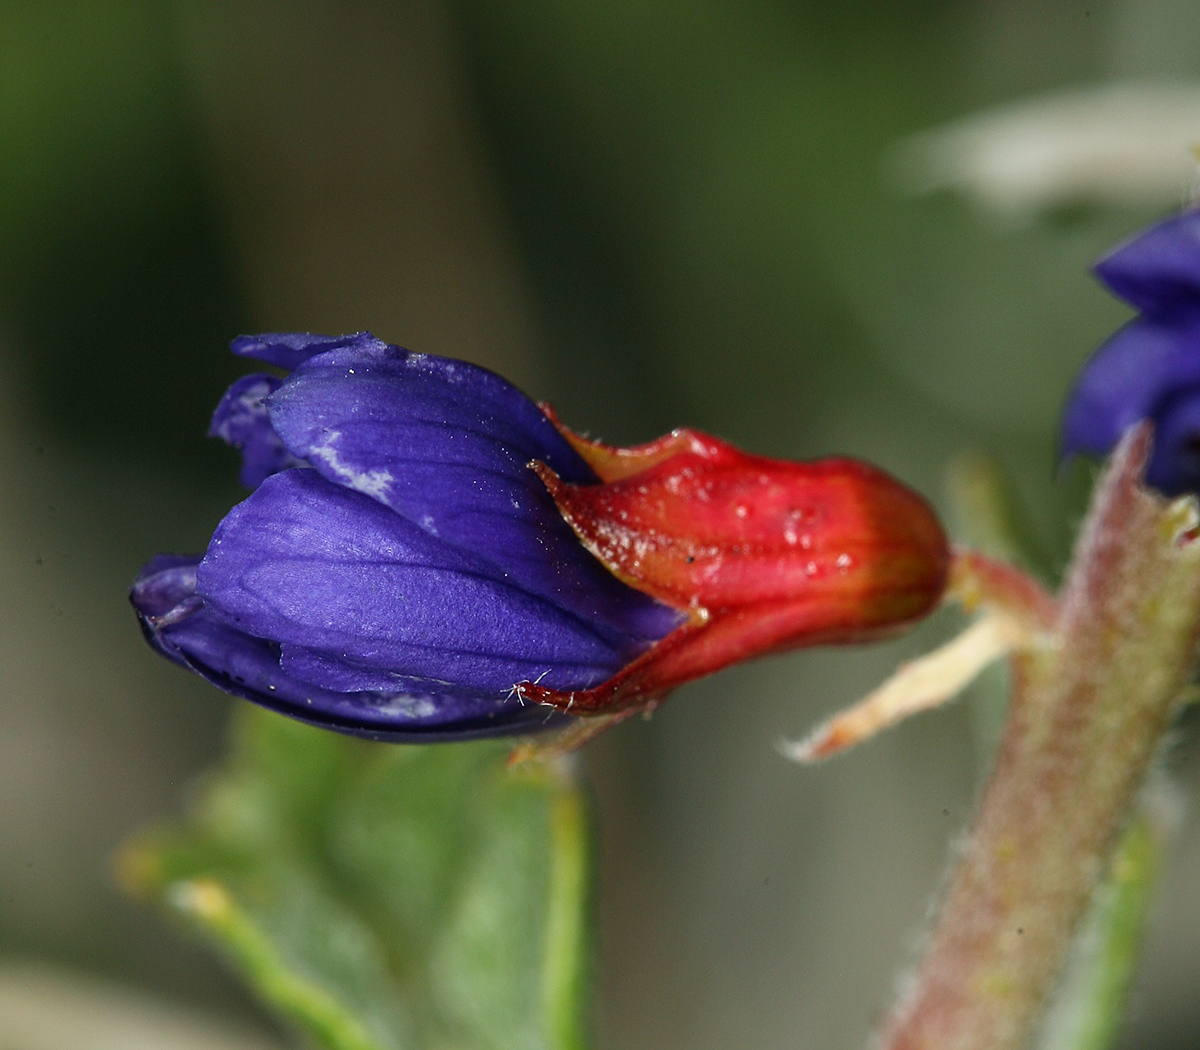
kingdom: Plantae
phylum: Tracheophyta
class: Magnoliopsida
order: Fabales
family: Fabaceae
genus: Psorothamnus
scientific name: Psorothamnus arborescens
